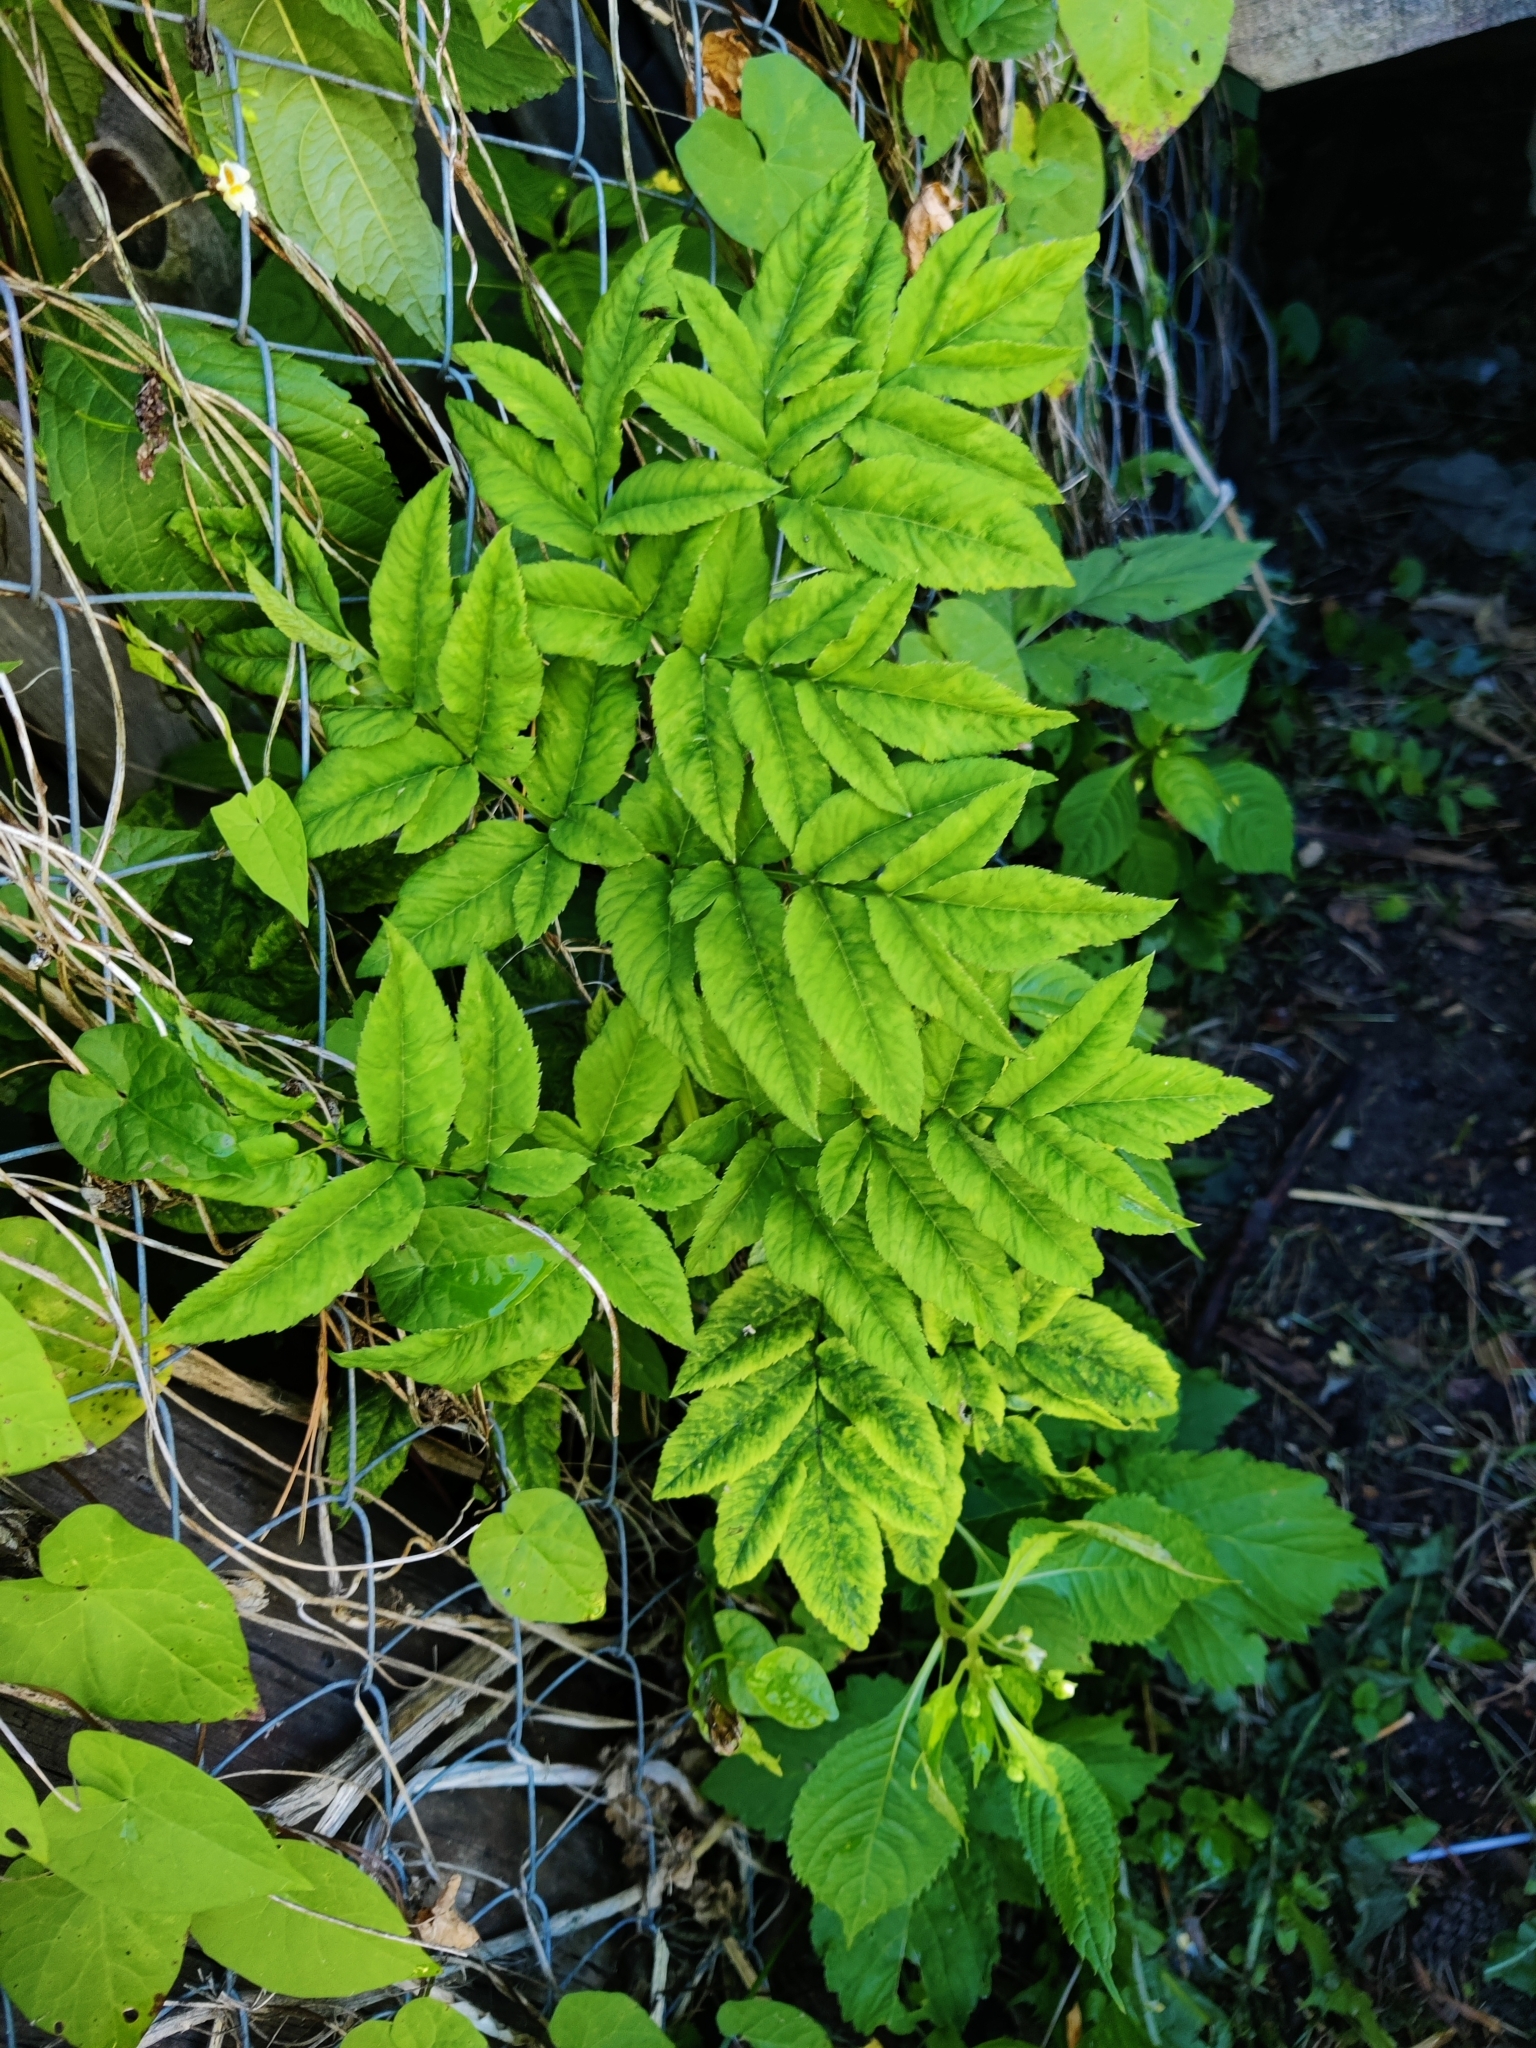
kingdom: Plantae
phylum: Tracheophyta
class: Magnoliopsida
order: Apiales
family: Apiaceae
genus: Angelica
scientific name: Angelica sylvestris
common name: Wild angelica
